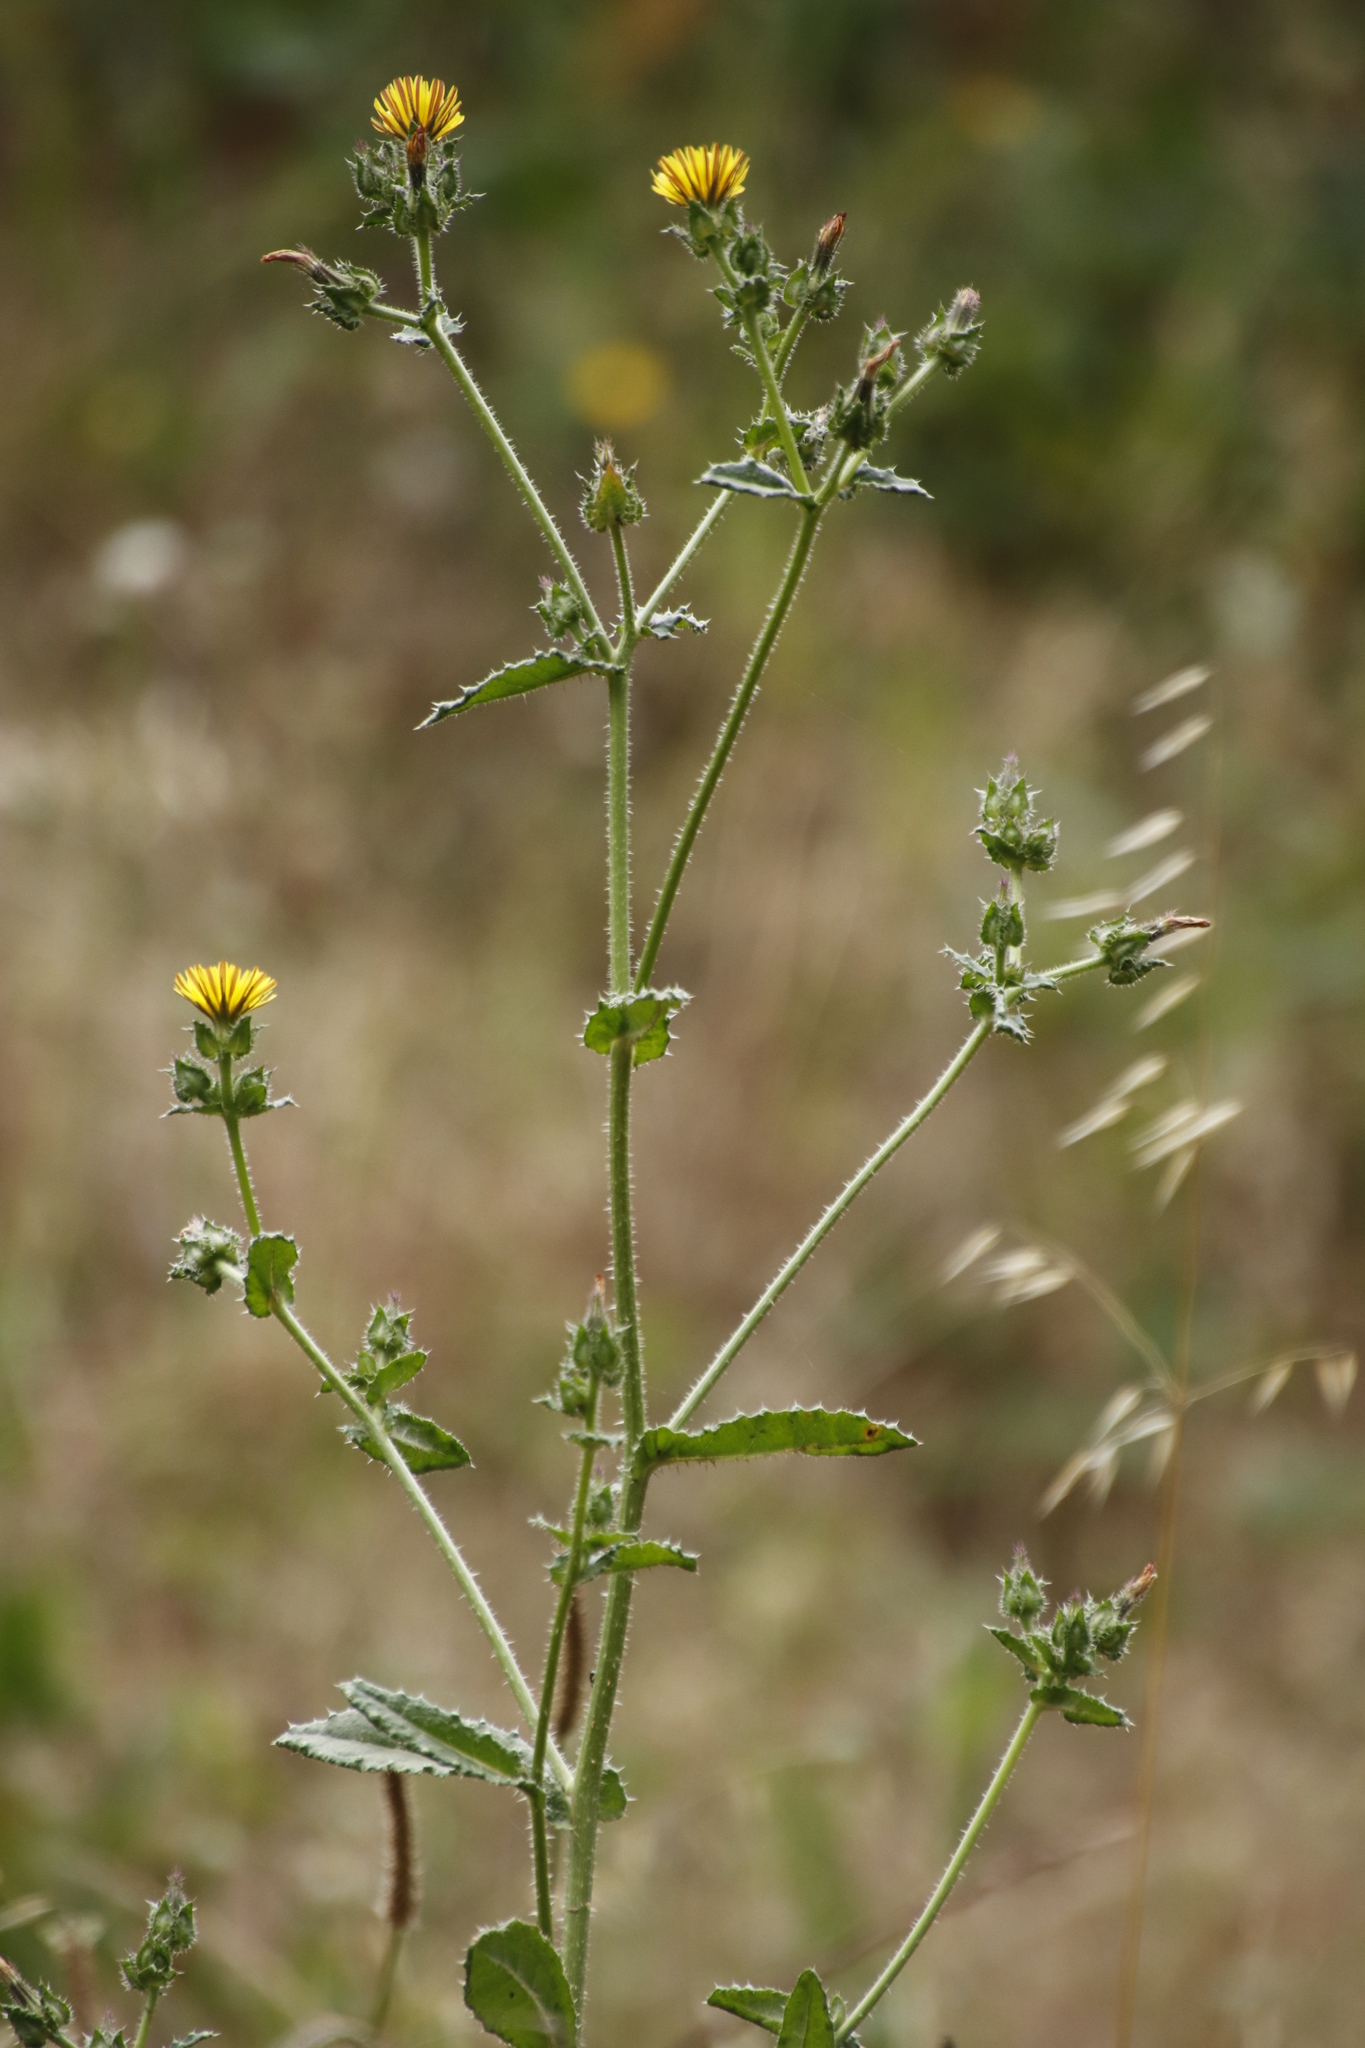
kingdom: Plantae
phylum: Tracheophyta
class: Magnoliopsida
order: Asterales
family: Asteraceae
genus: Helminthotheca
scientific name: Helminthotheca echioides
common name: Ox-tongue
